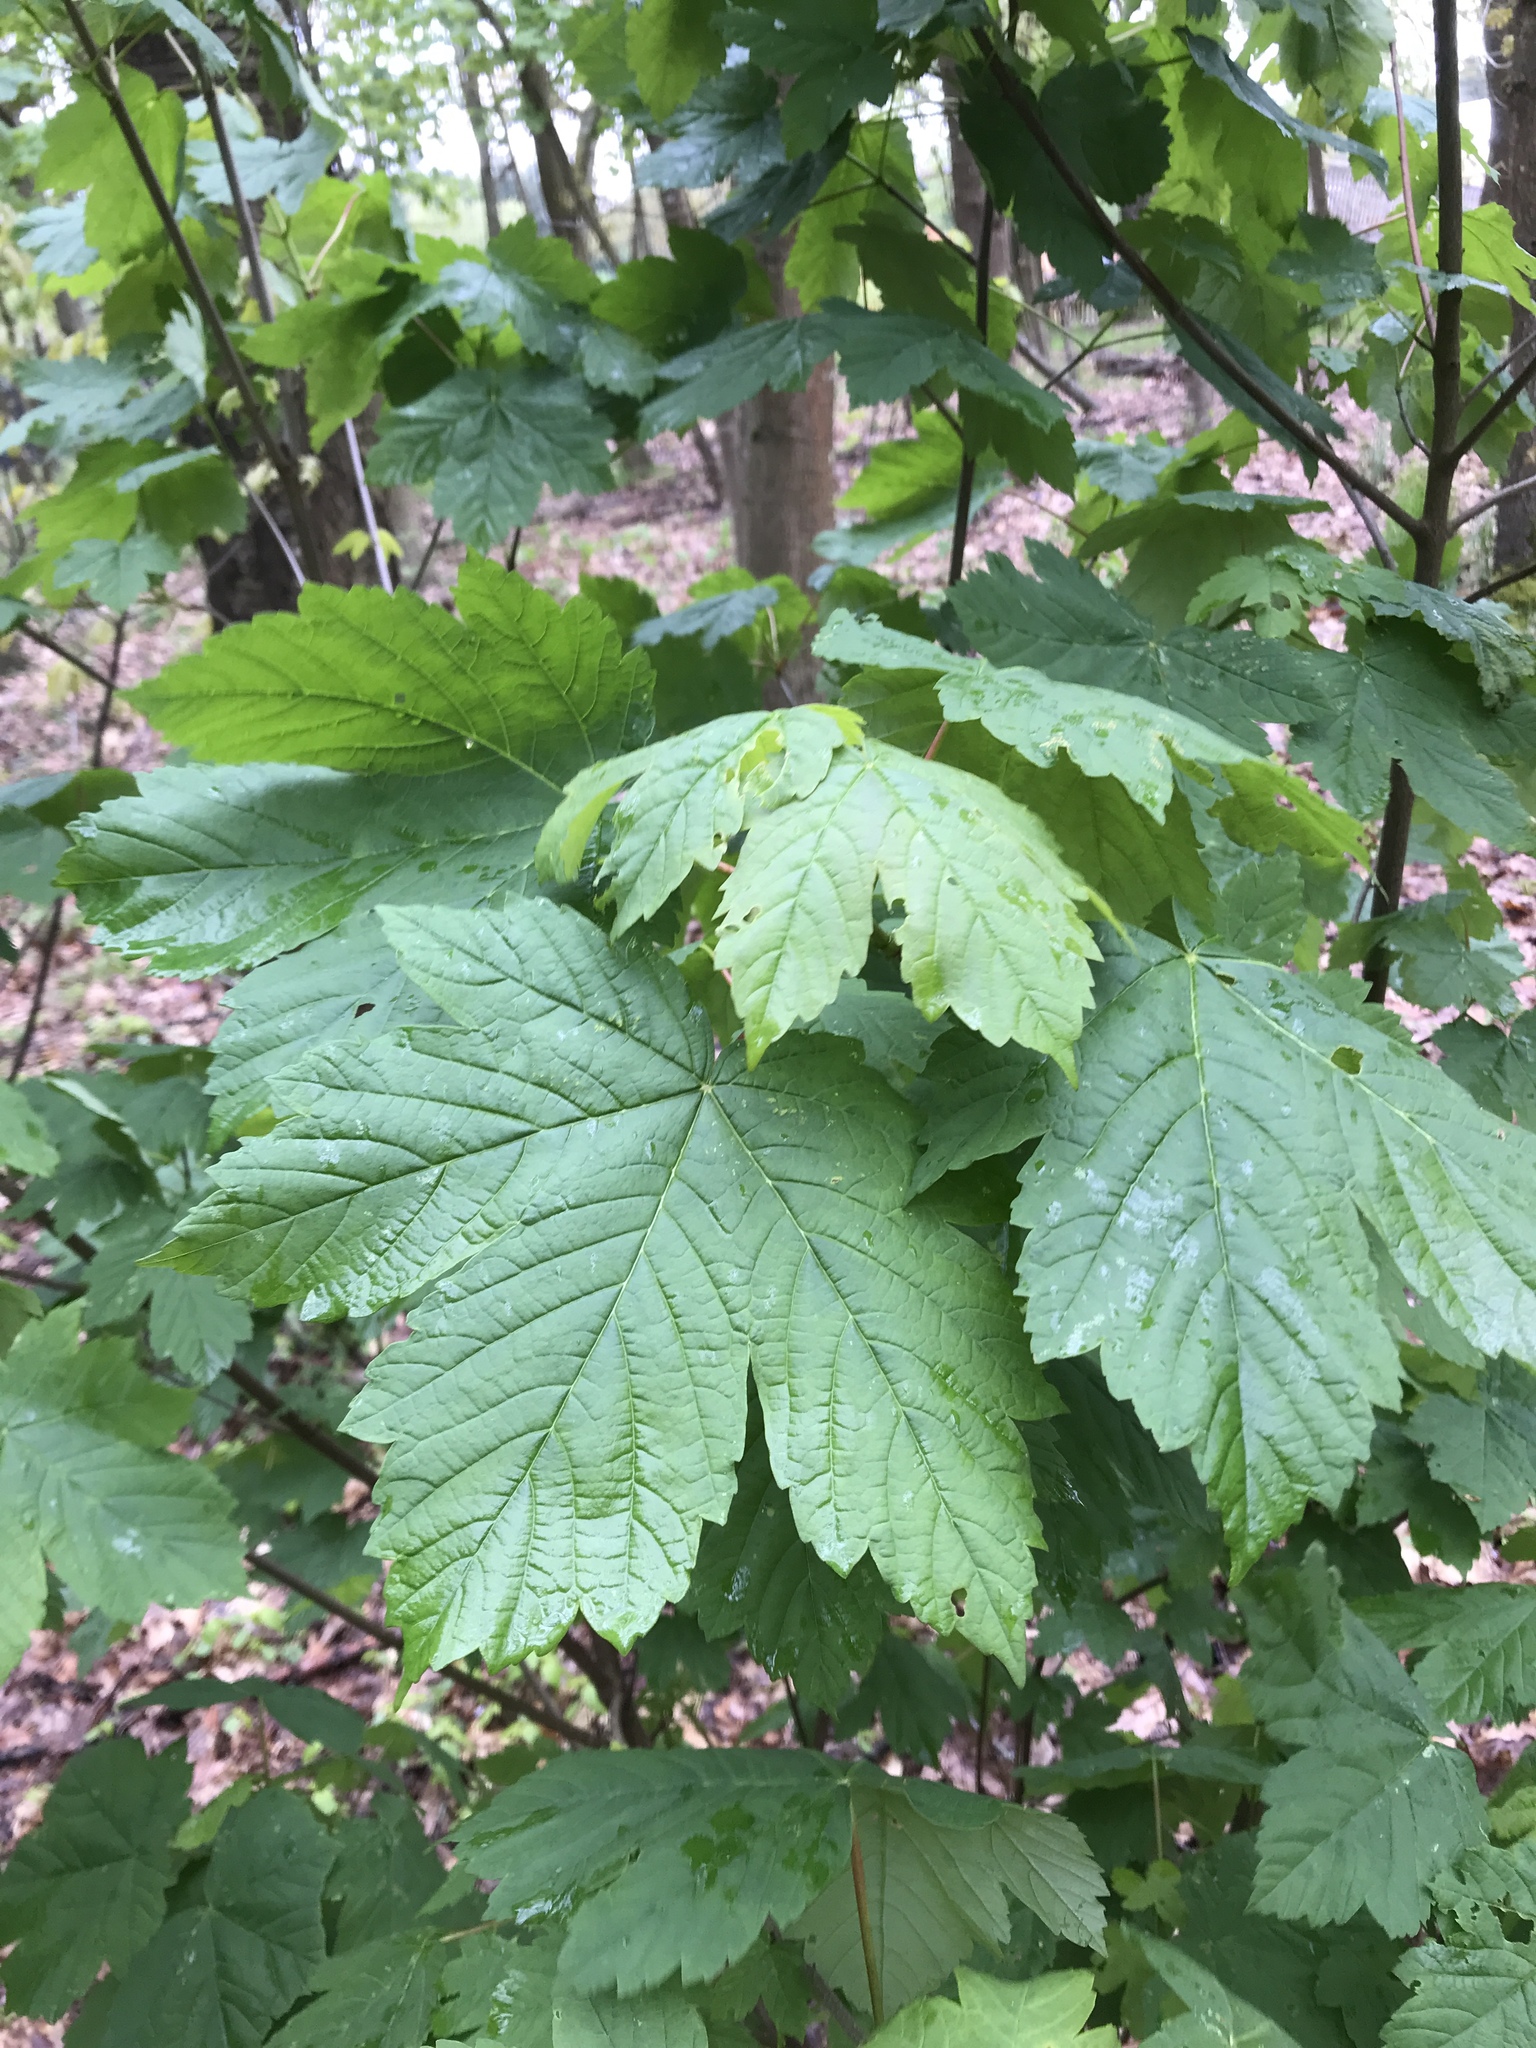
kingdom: Plantae
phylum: Tracheophyta
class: Magnoliopsida
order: Sapindales
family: Sapindaceae
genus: Acer
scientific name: Acer pseudoplatanus
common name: Sycamore
